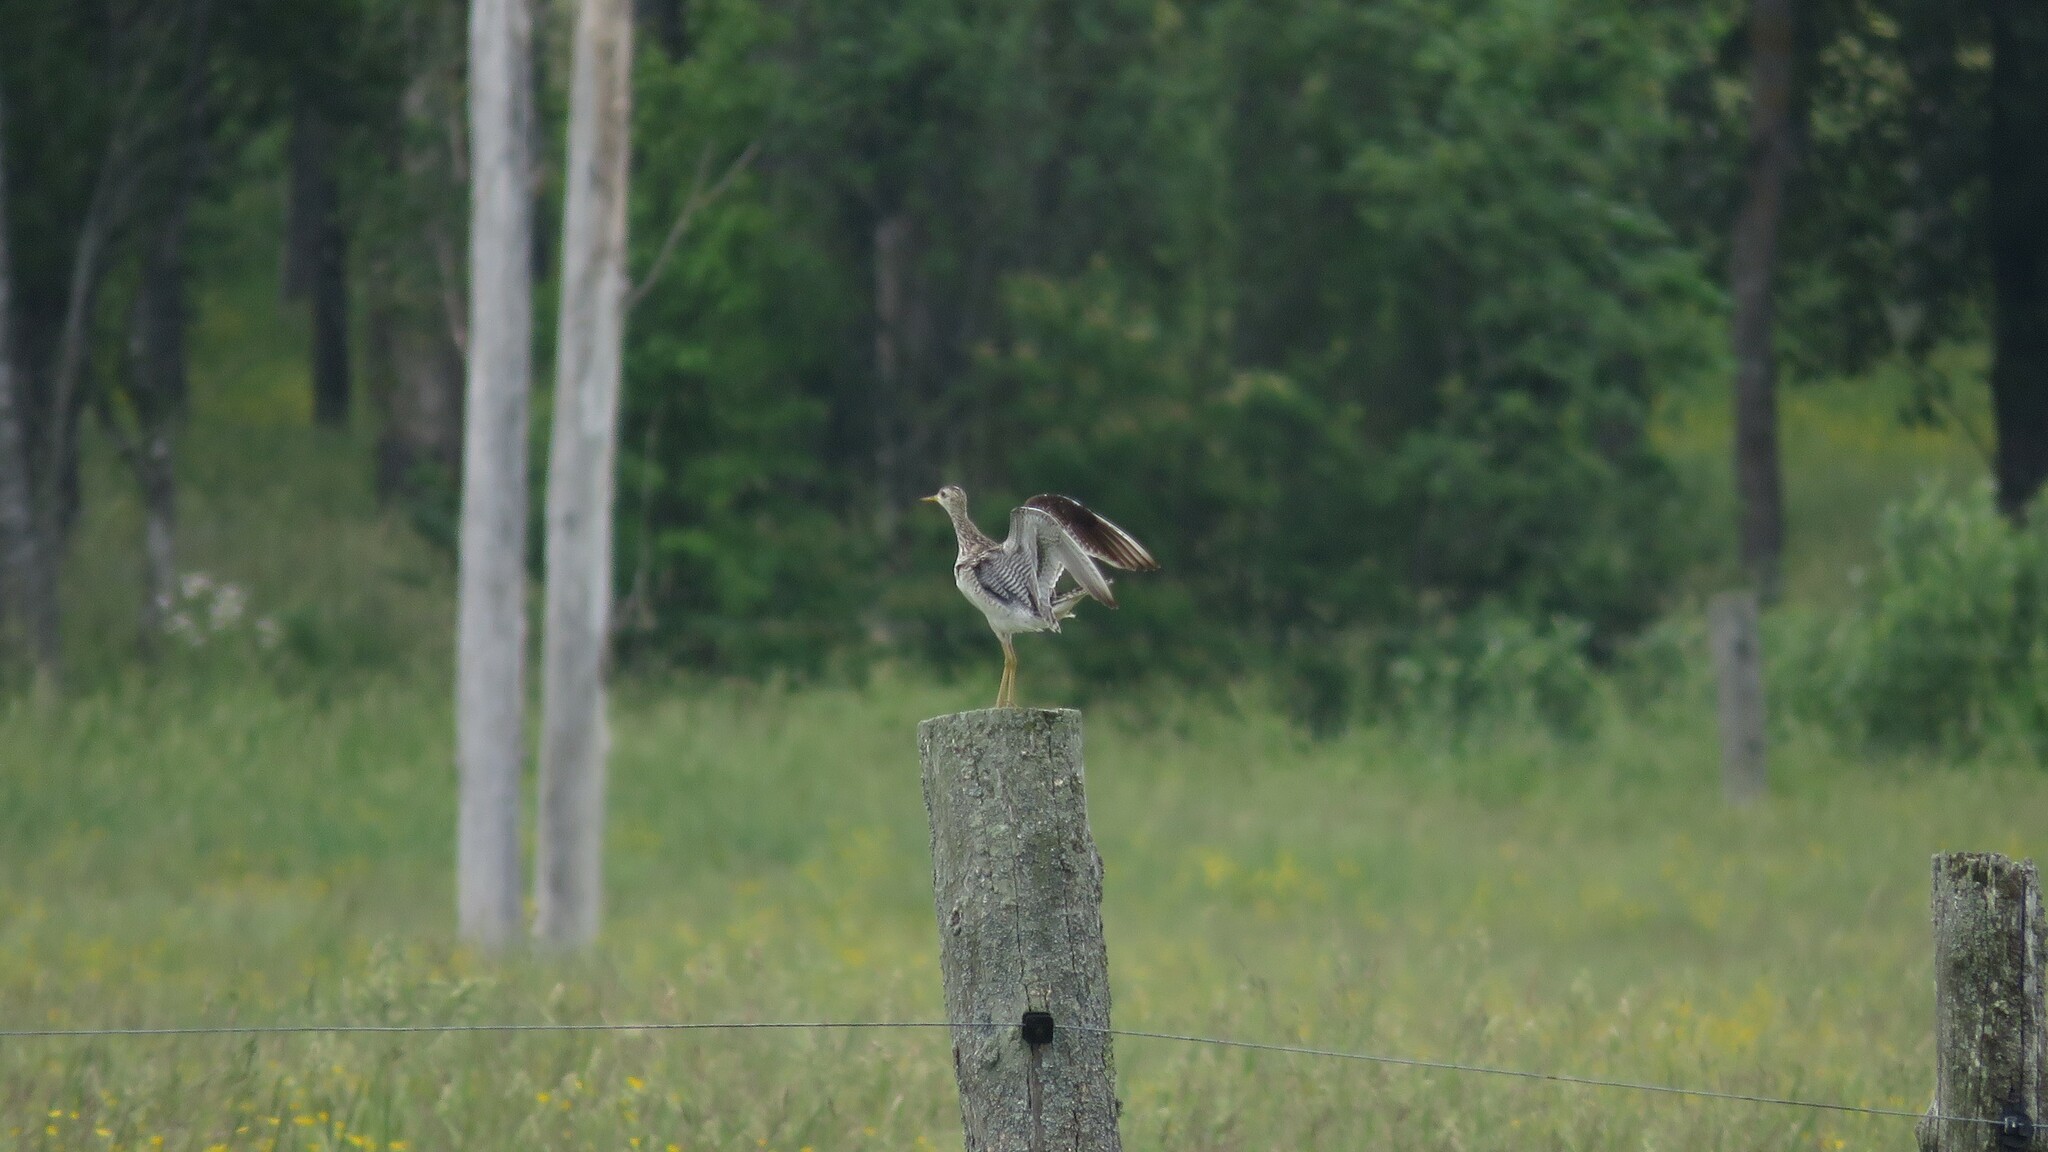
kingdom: Animalia
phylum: Chordata
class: Aves
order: Charadriiformes
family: Scolopacidae
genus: Bartramia
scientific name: Bartramia longicauda
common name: Upland sandpiper
